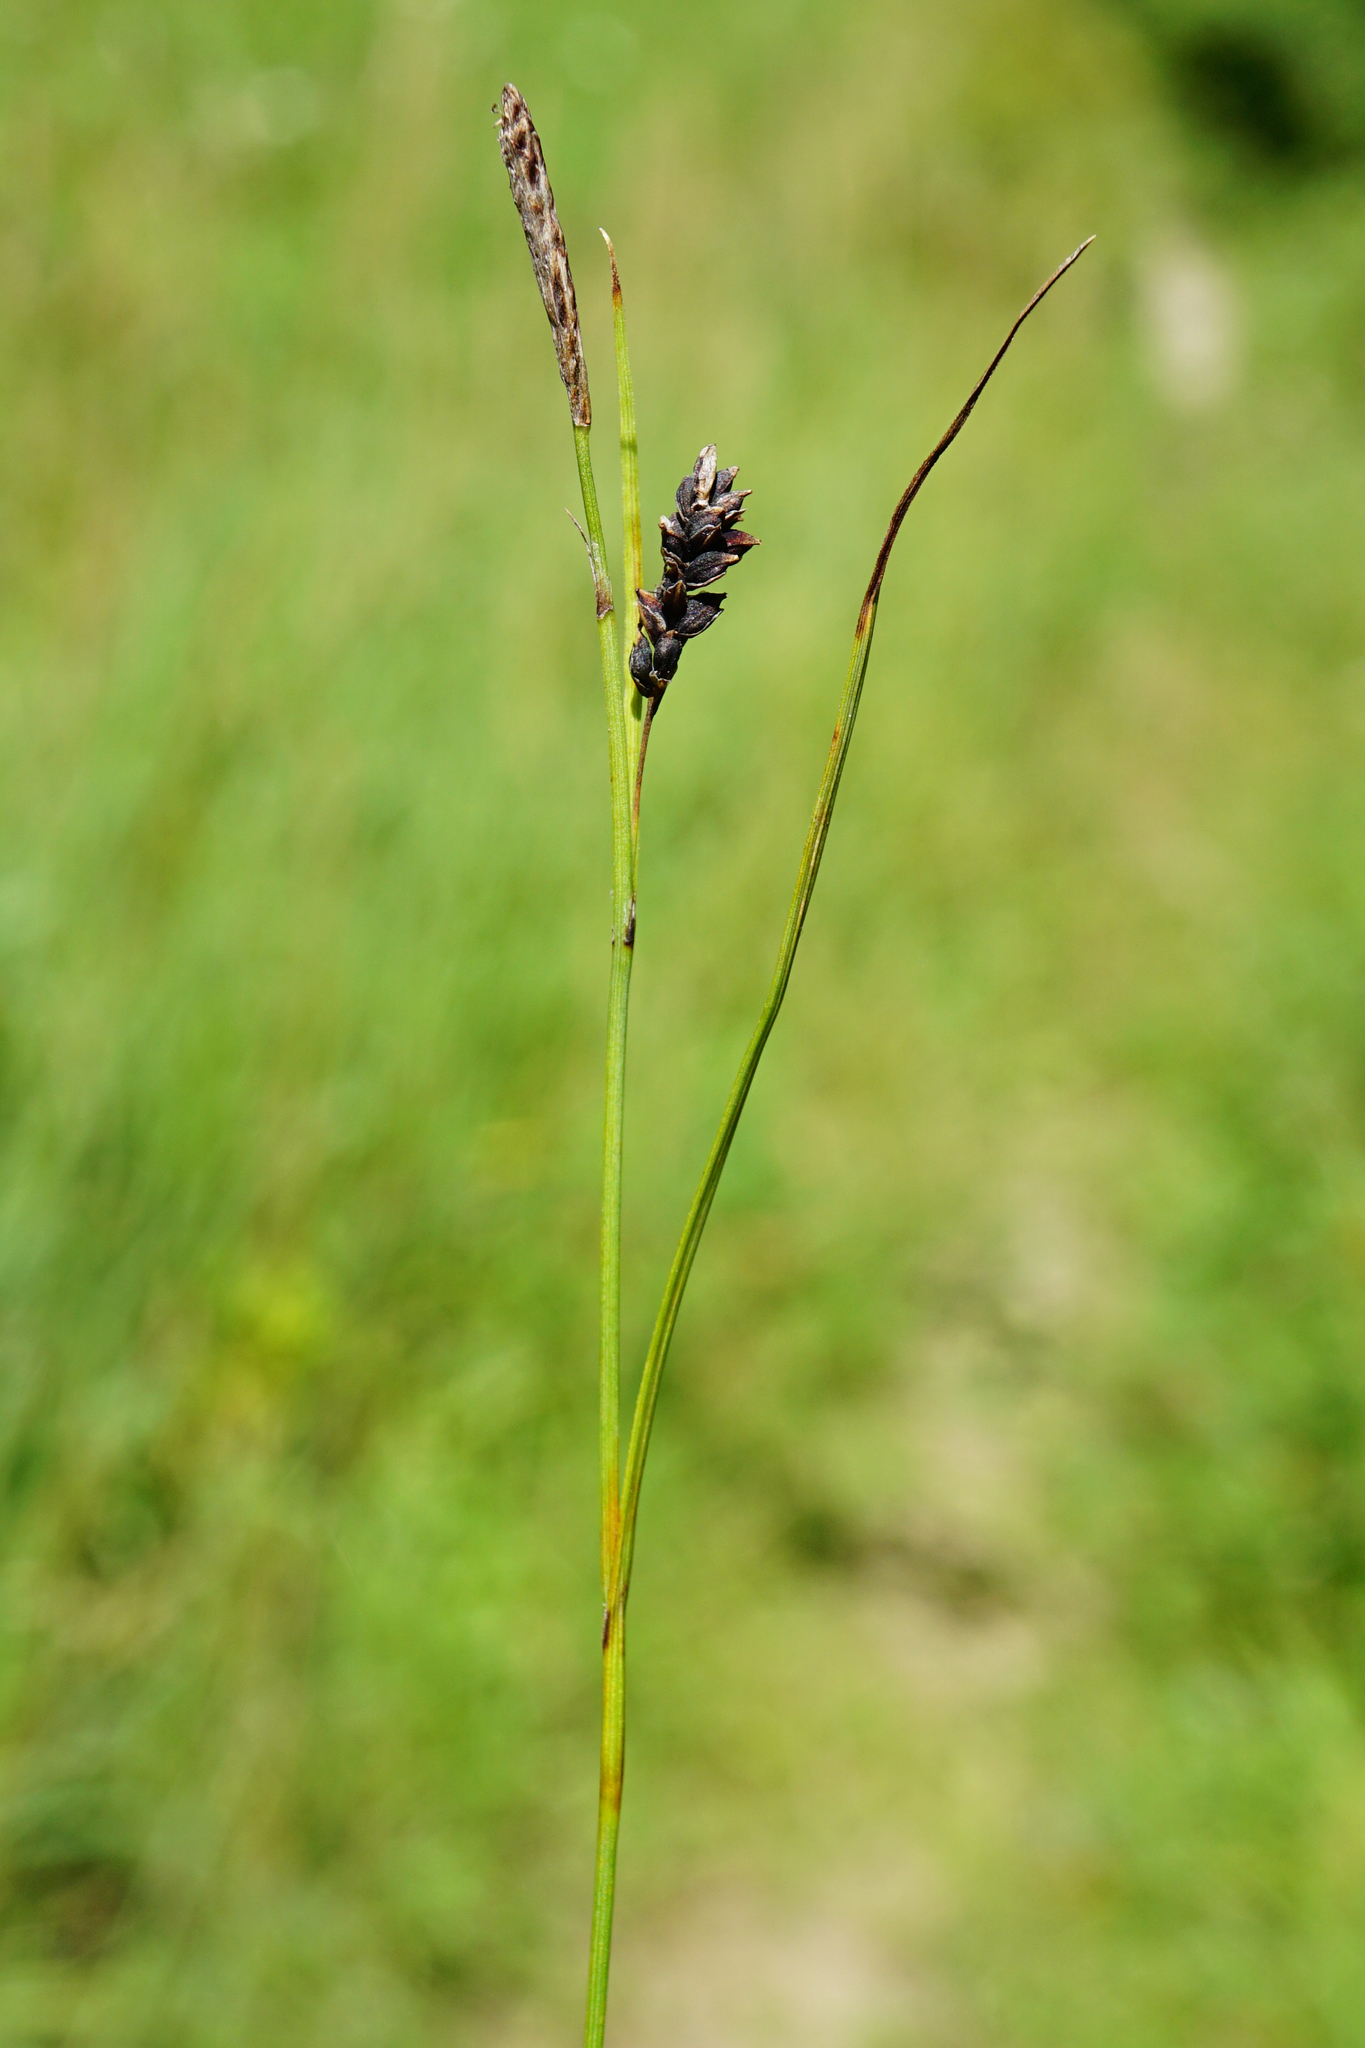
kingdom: Plantae
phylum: Tracheophyta
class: Liliopsida
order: Poales
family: Cyperaceae
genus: Carex
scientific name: Carex panicea
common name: Carnation sedge
